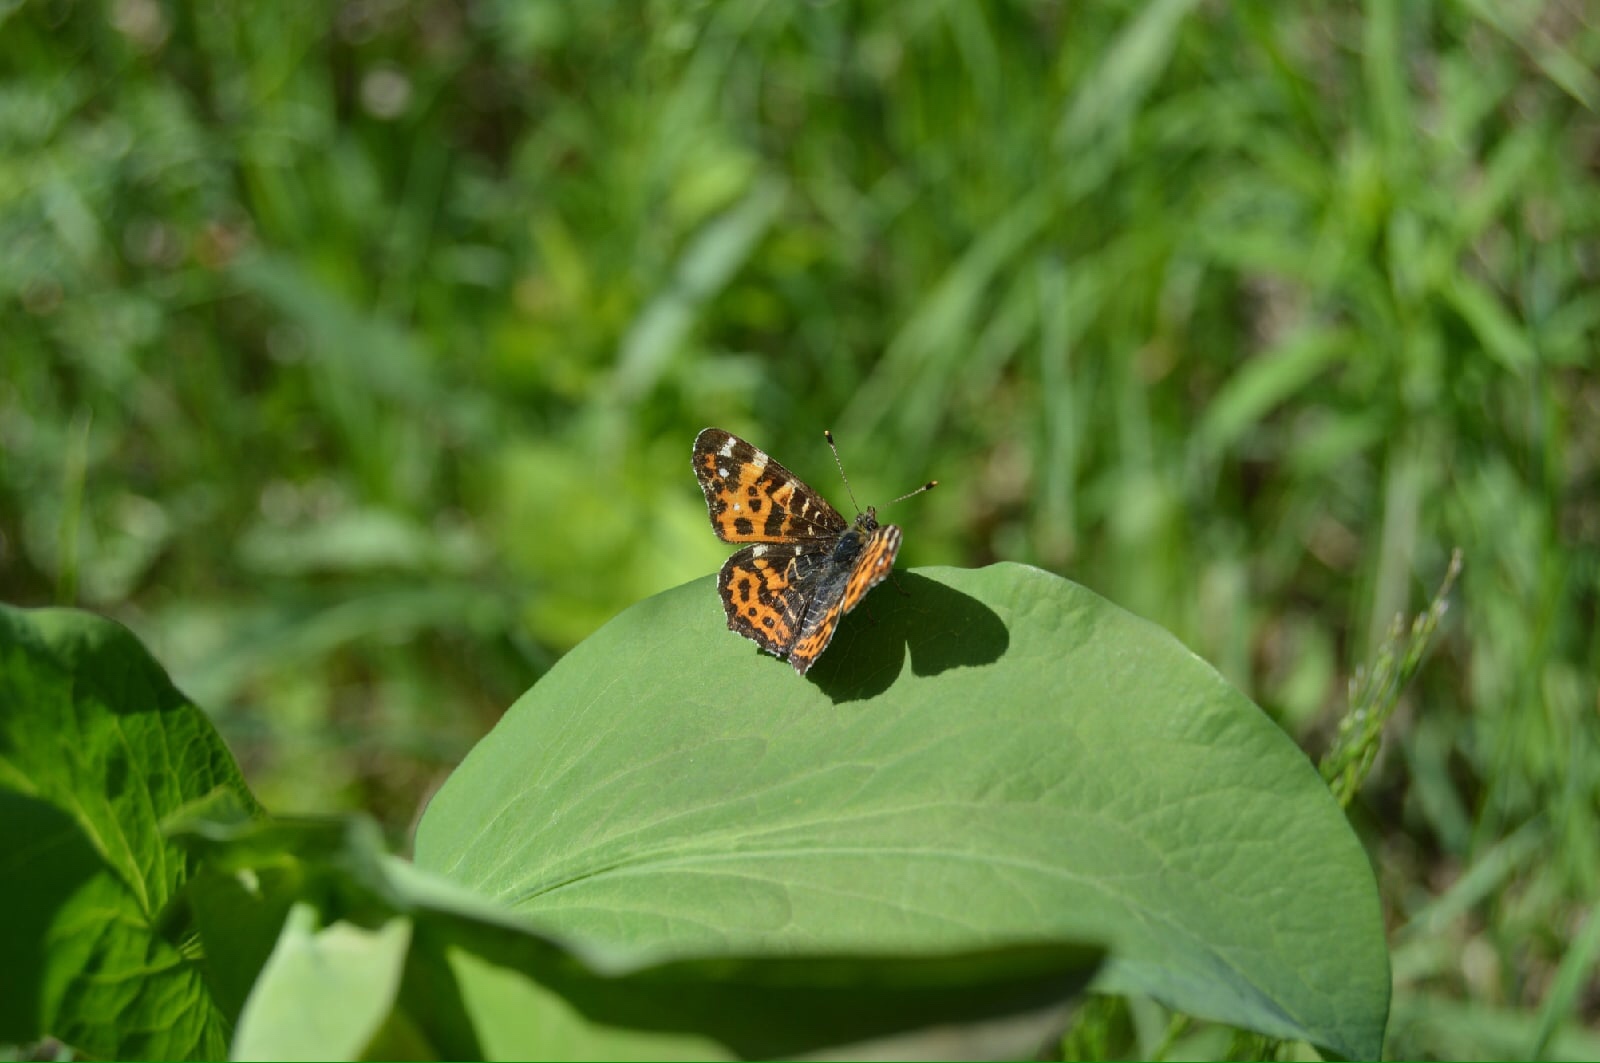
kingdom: Animalia
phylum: Arthropoda
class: Insecta
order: Lepidoptera
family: Nymphalidae
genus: Araschnia
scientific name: Araschnia levana
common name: Map butterfly
